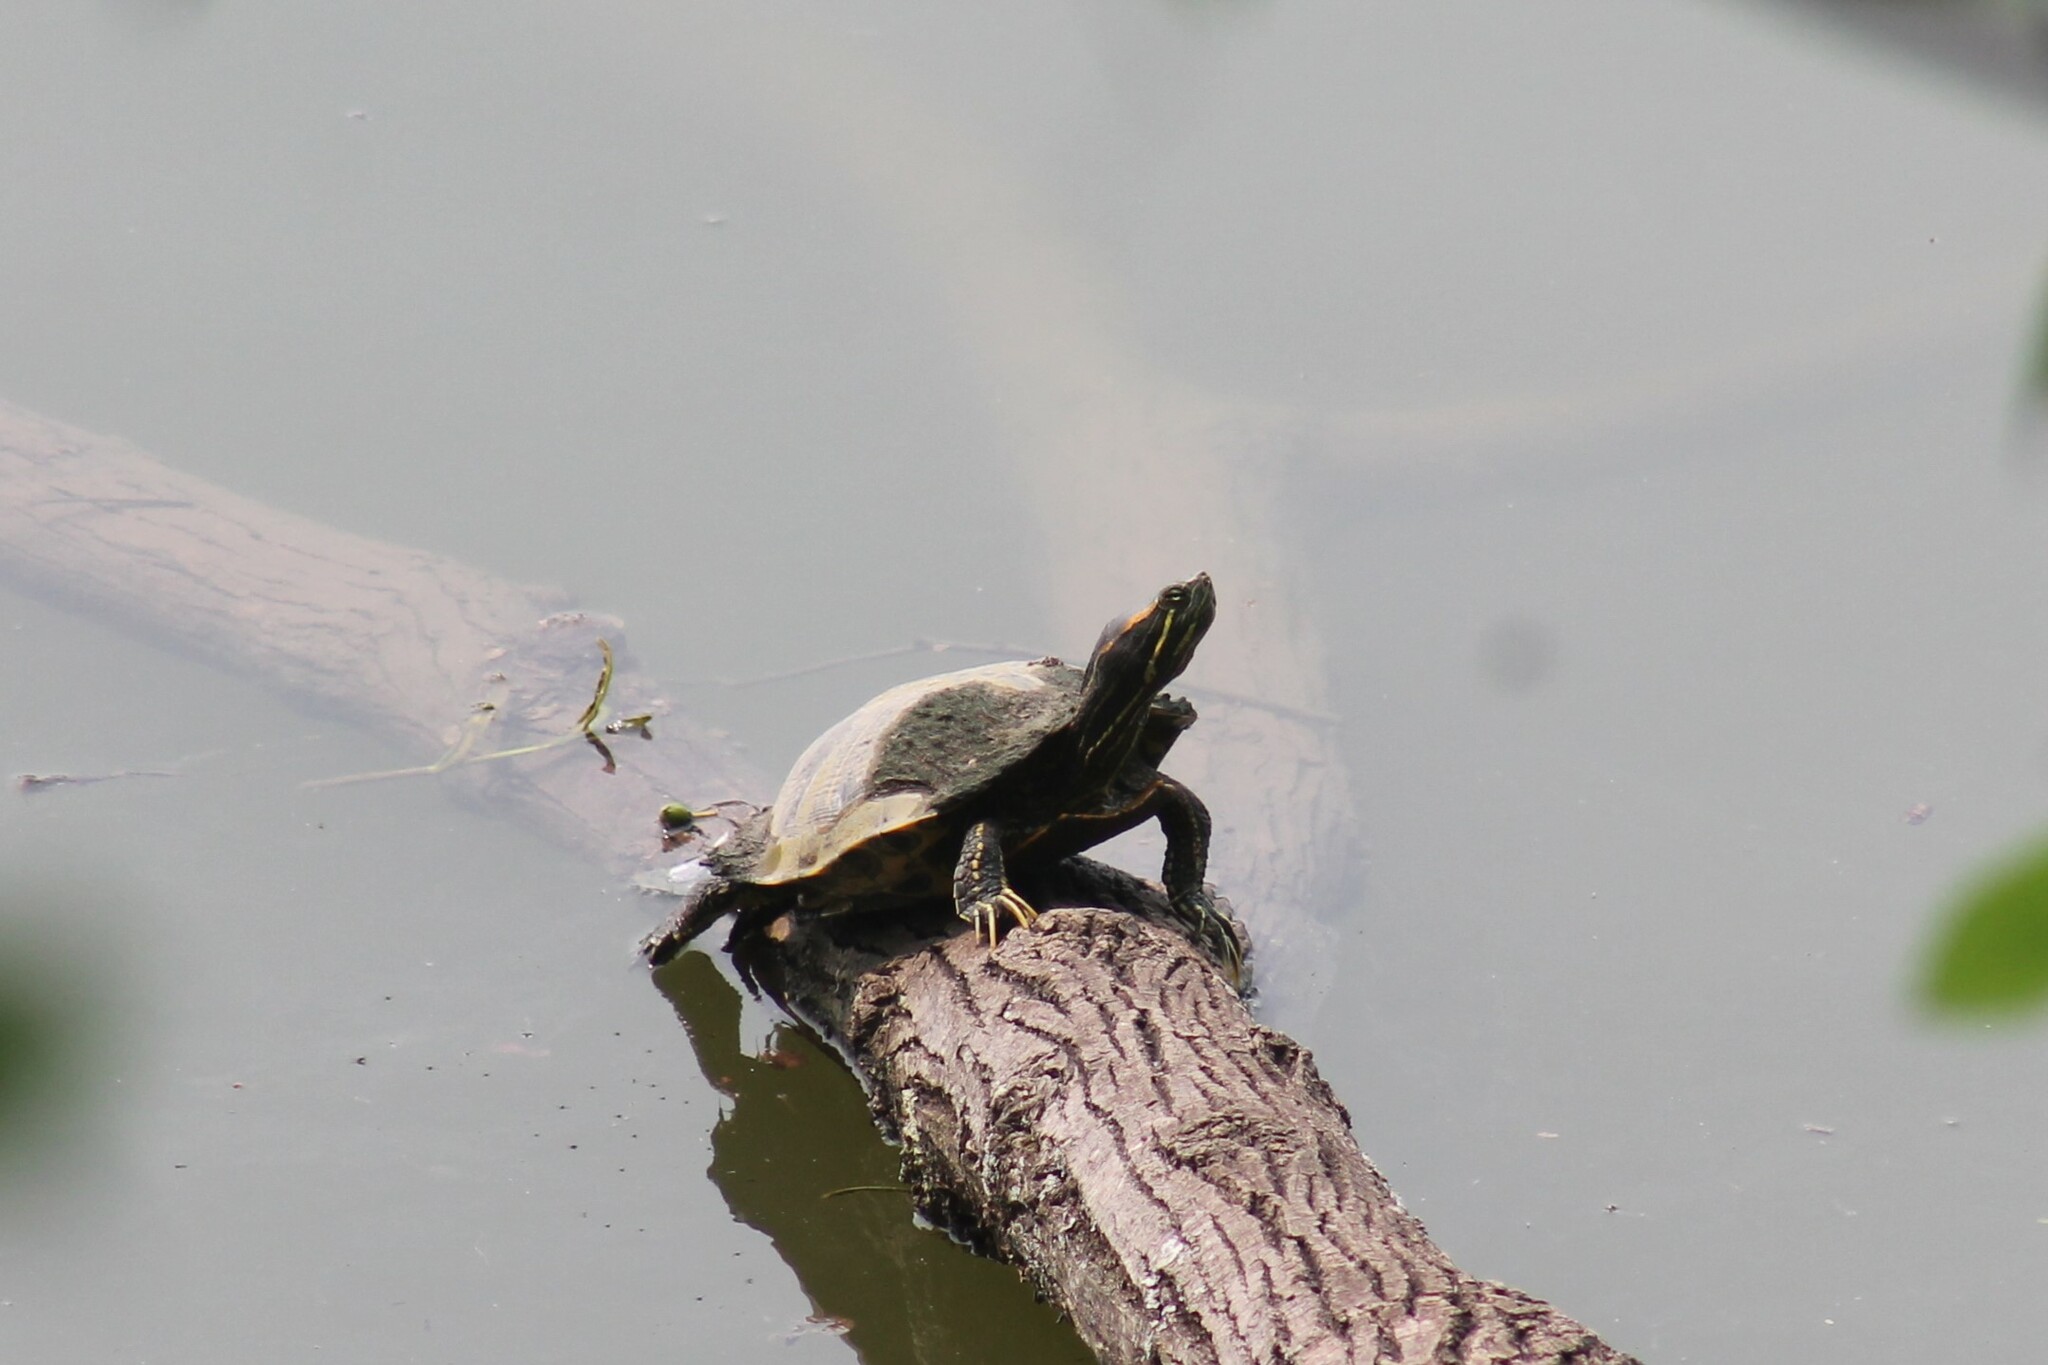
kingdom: Animalia
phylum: Chordata
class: Testudines
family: Emydidae
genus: Trachemys
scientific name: Trachemys scripta
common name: Slider
